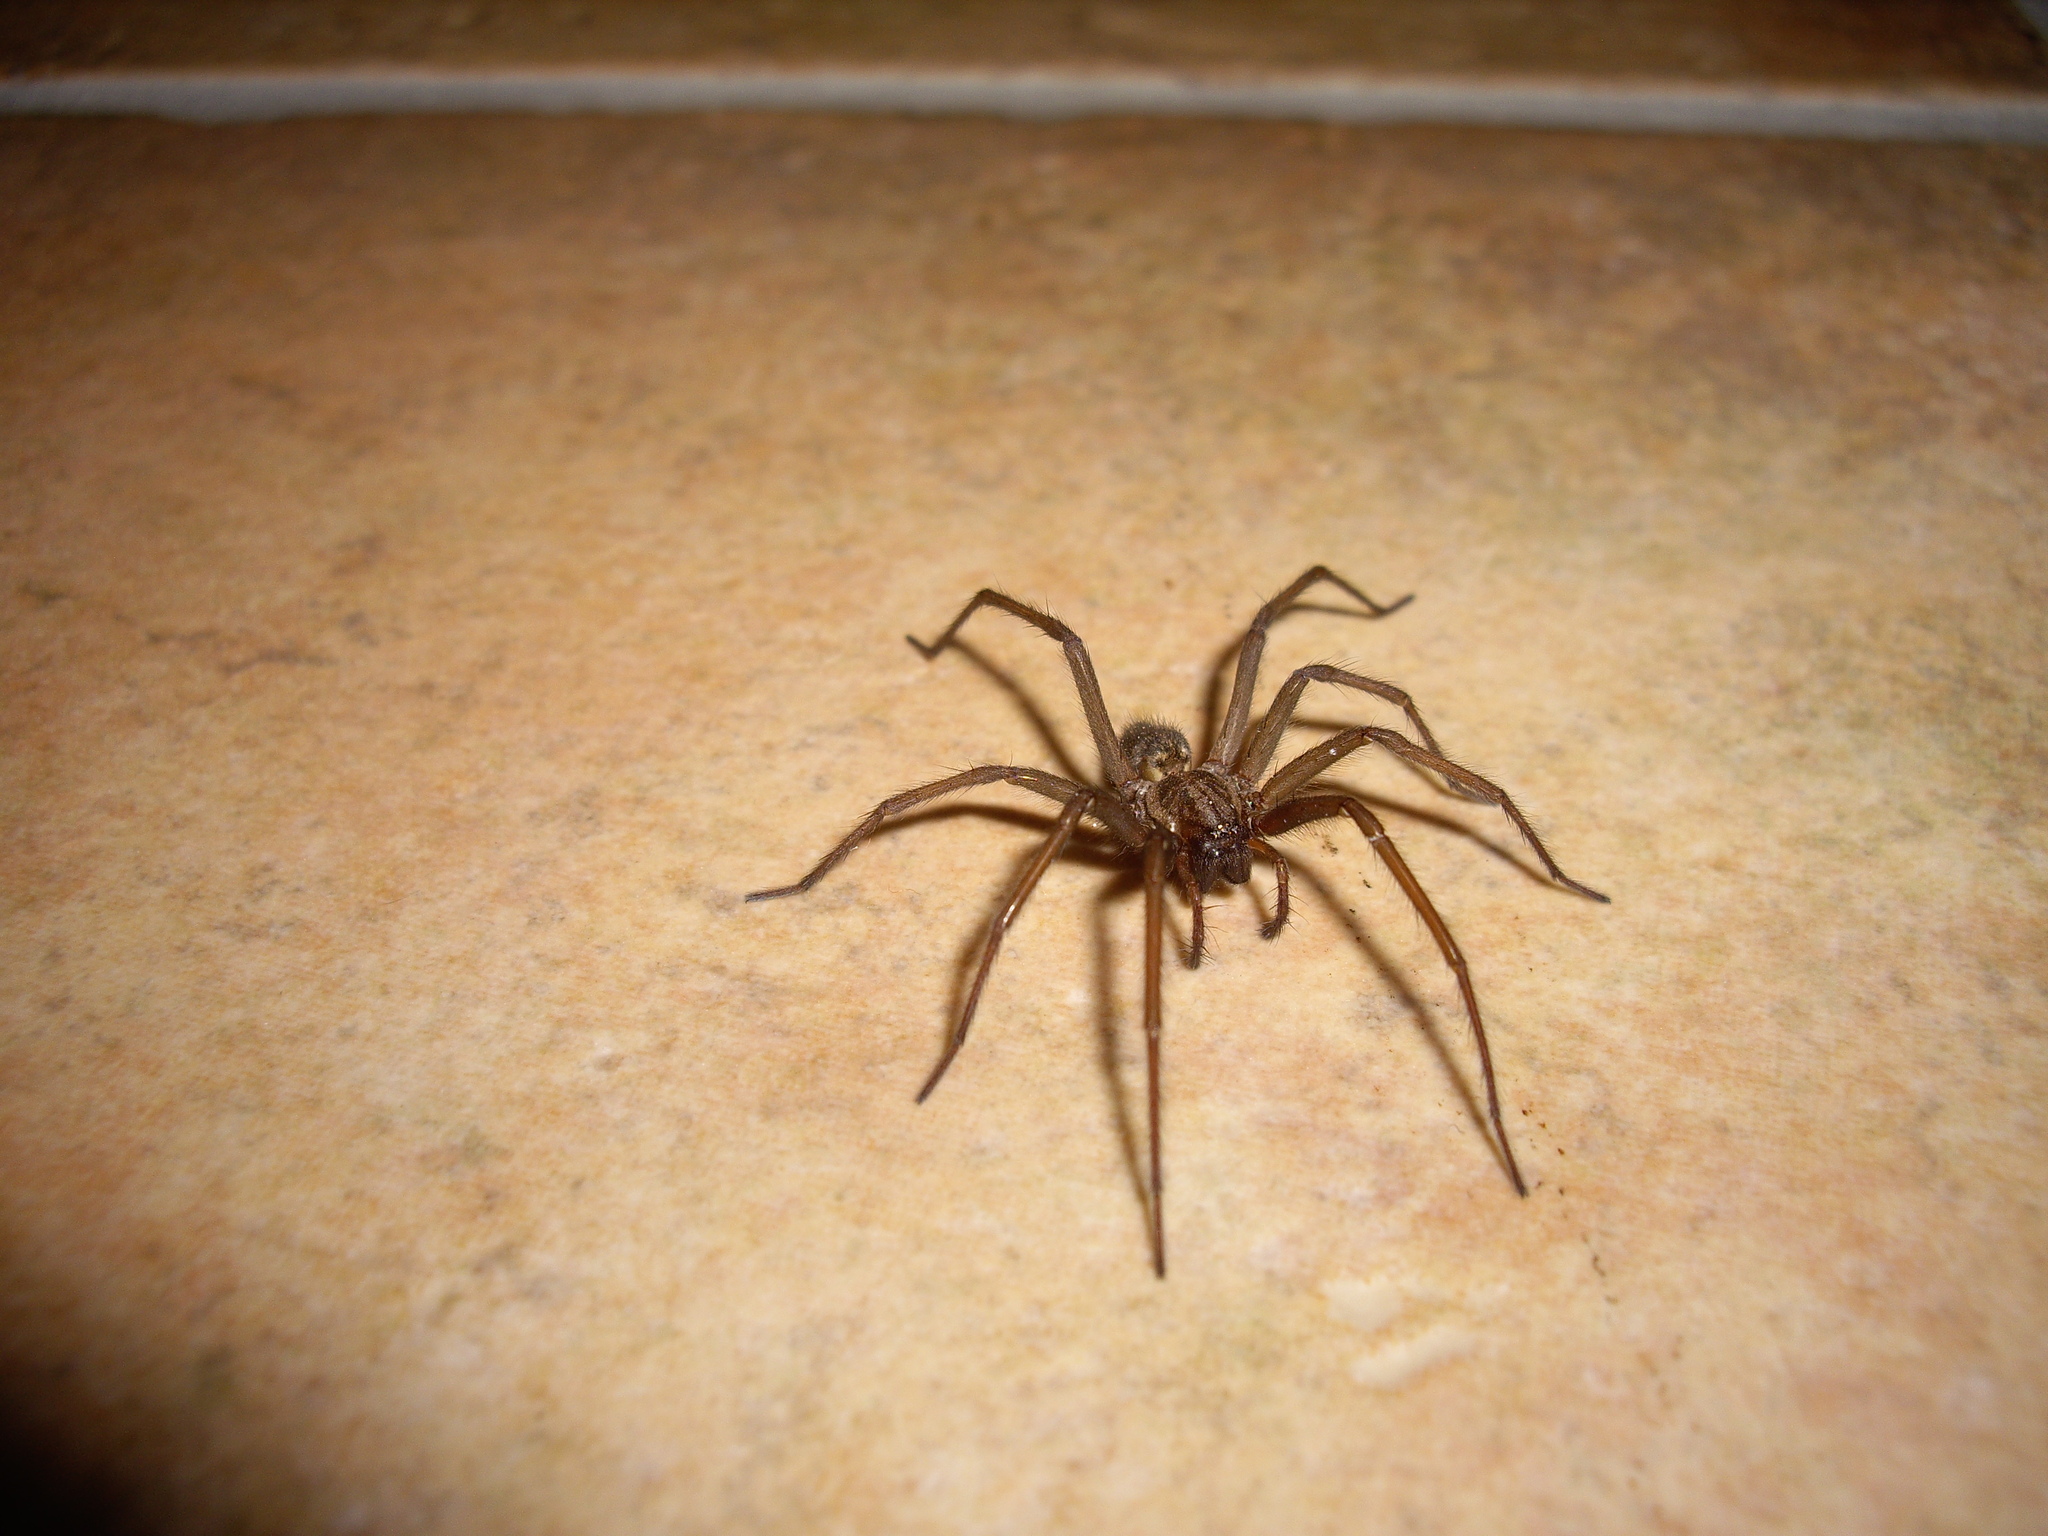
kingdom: Animalia
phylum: Arthropoda
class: Arachnida
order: Araneae
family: Agelenidae
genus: Eratigena
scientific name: Eratigena atrica
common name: Giant house spider
